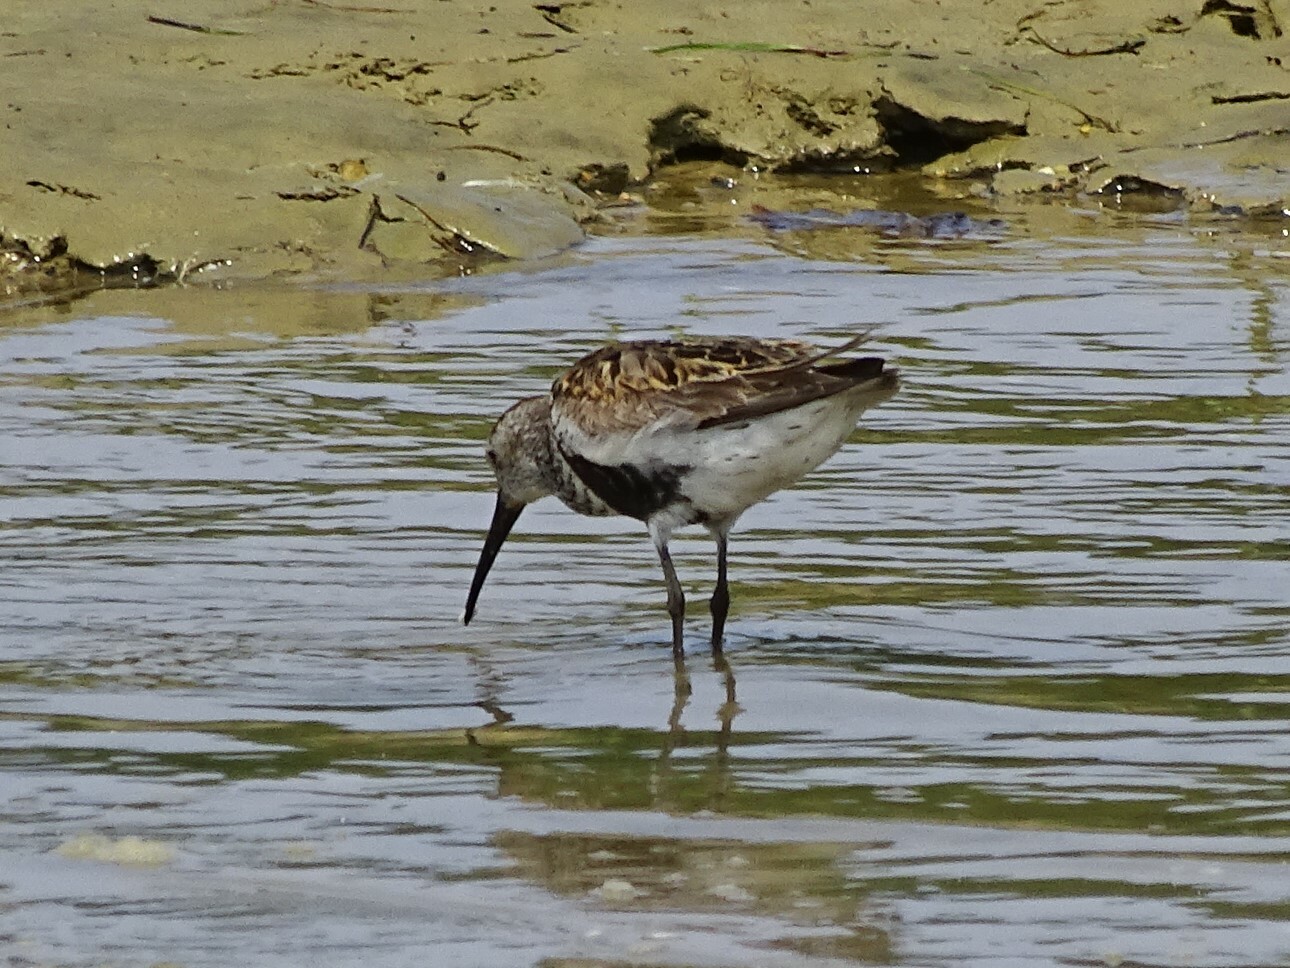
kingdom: Animalia
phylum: Chordata
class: Aves
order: Charadriiformes
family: Scolopacidae
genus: Calidris
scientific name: Calidris alpina
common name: Dunlin
